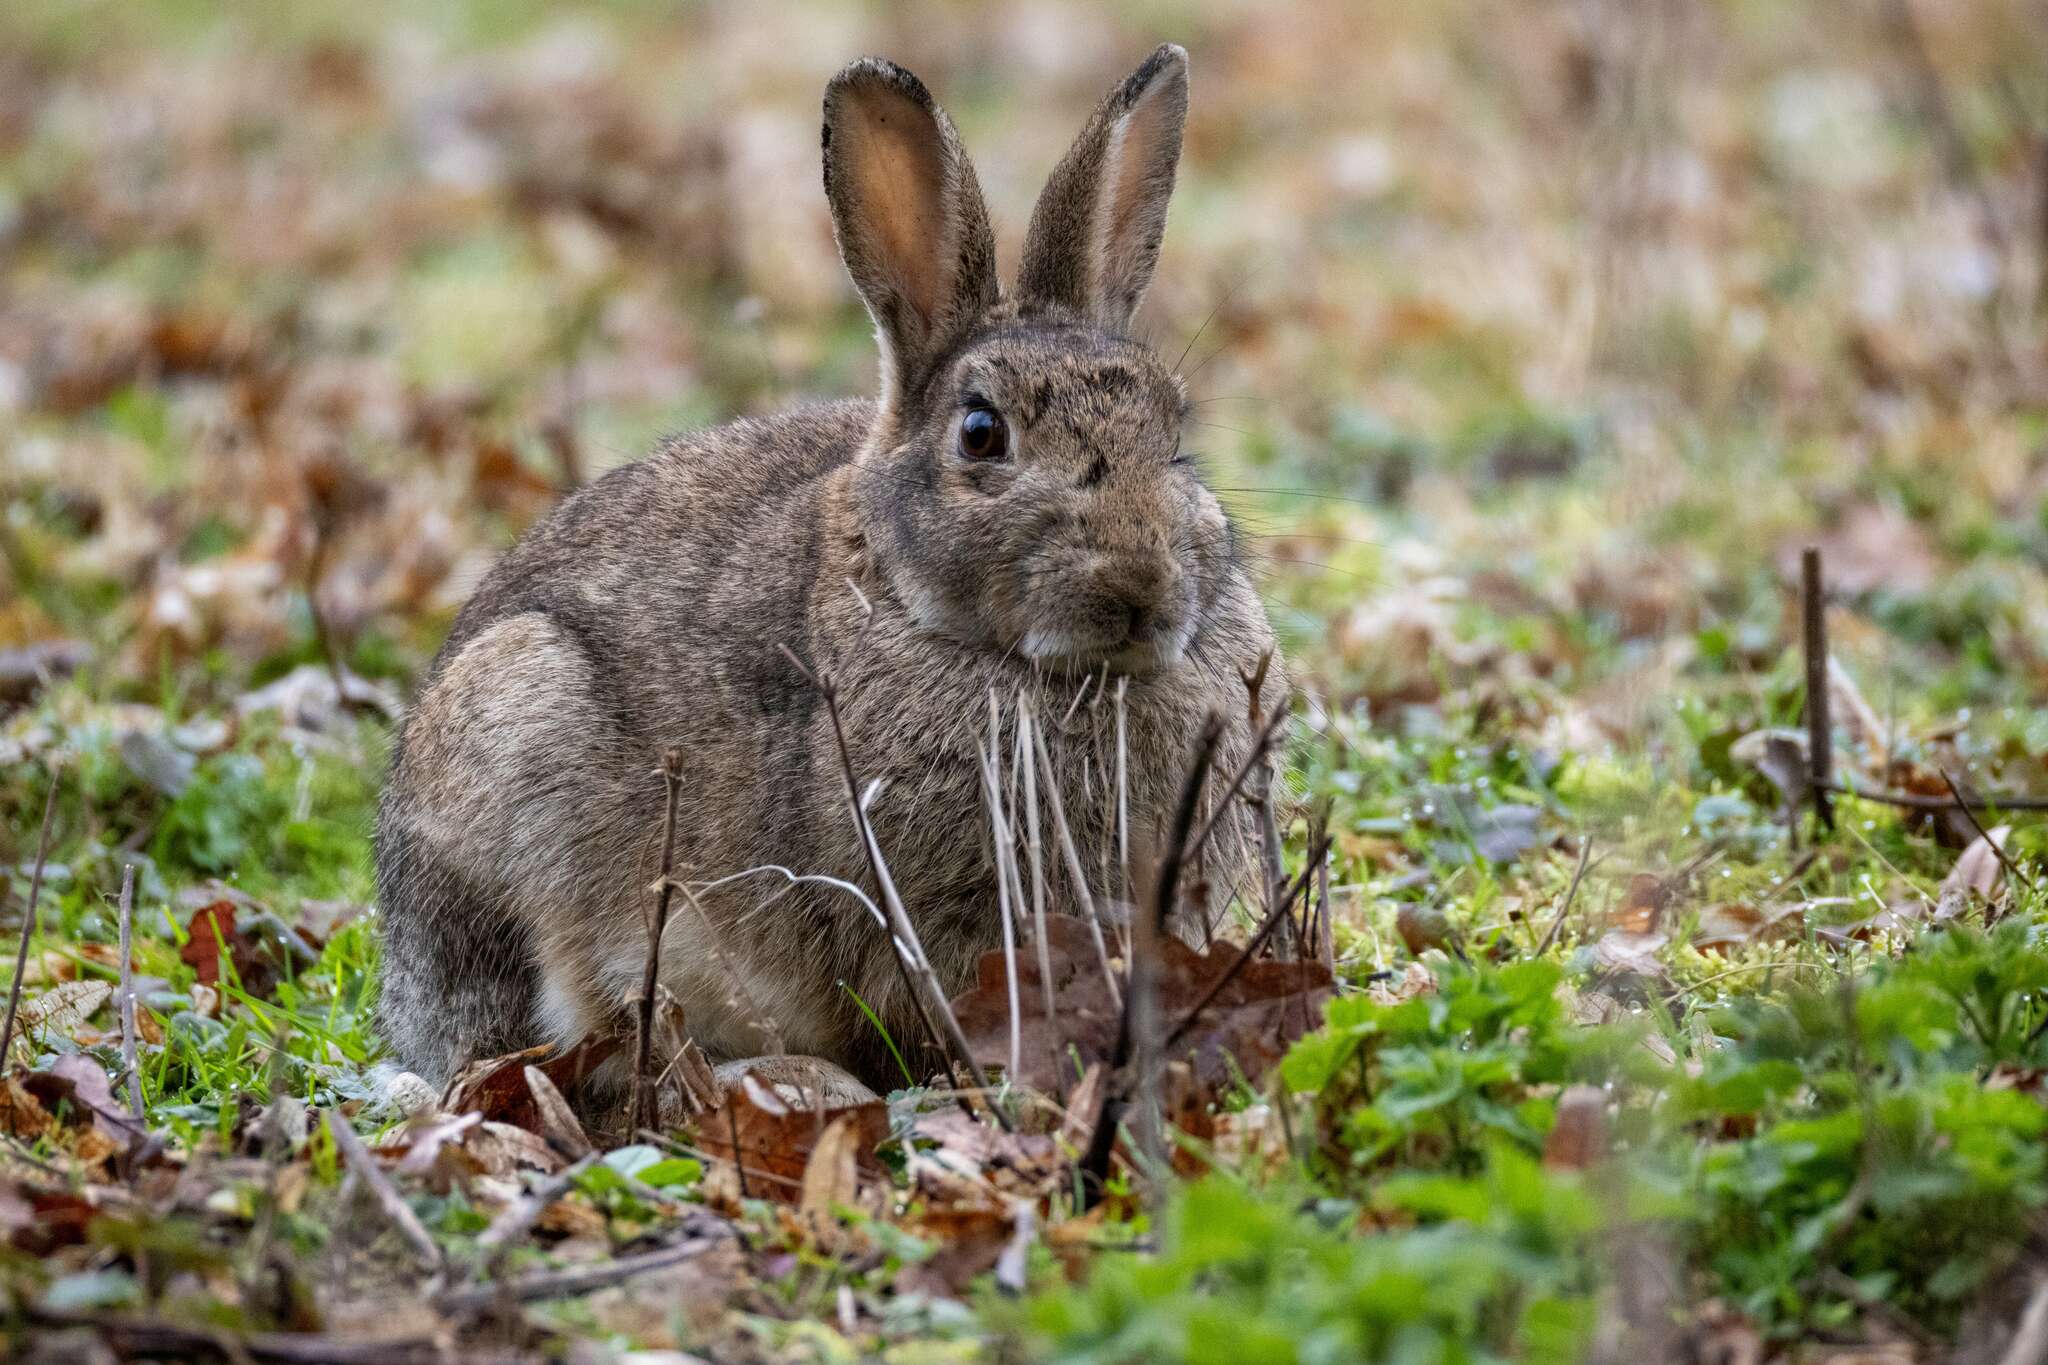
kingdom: Animalia
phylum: Chordata
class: Mammalia
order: Lagomorpha
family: Leporidae
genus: Oryctolagus
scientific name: Oryctolagus cuniculus
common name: European rabbit
